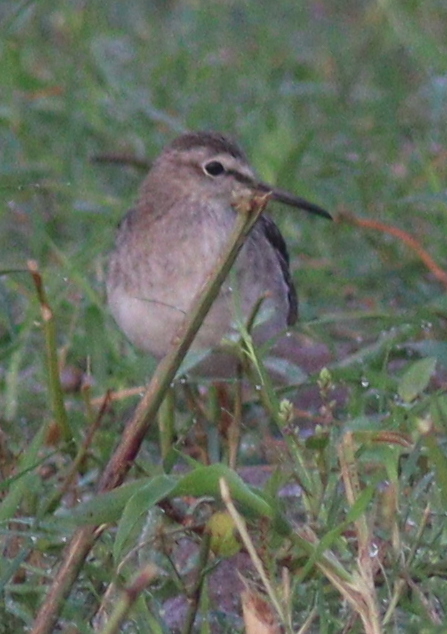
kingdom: Animalia
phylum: Chordata
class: Aves
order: Charadriiformes
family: Scolopacidae
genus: Tringa
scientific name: Tringa glareola
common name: Wood sandpiper
